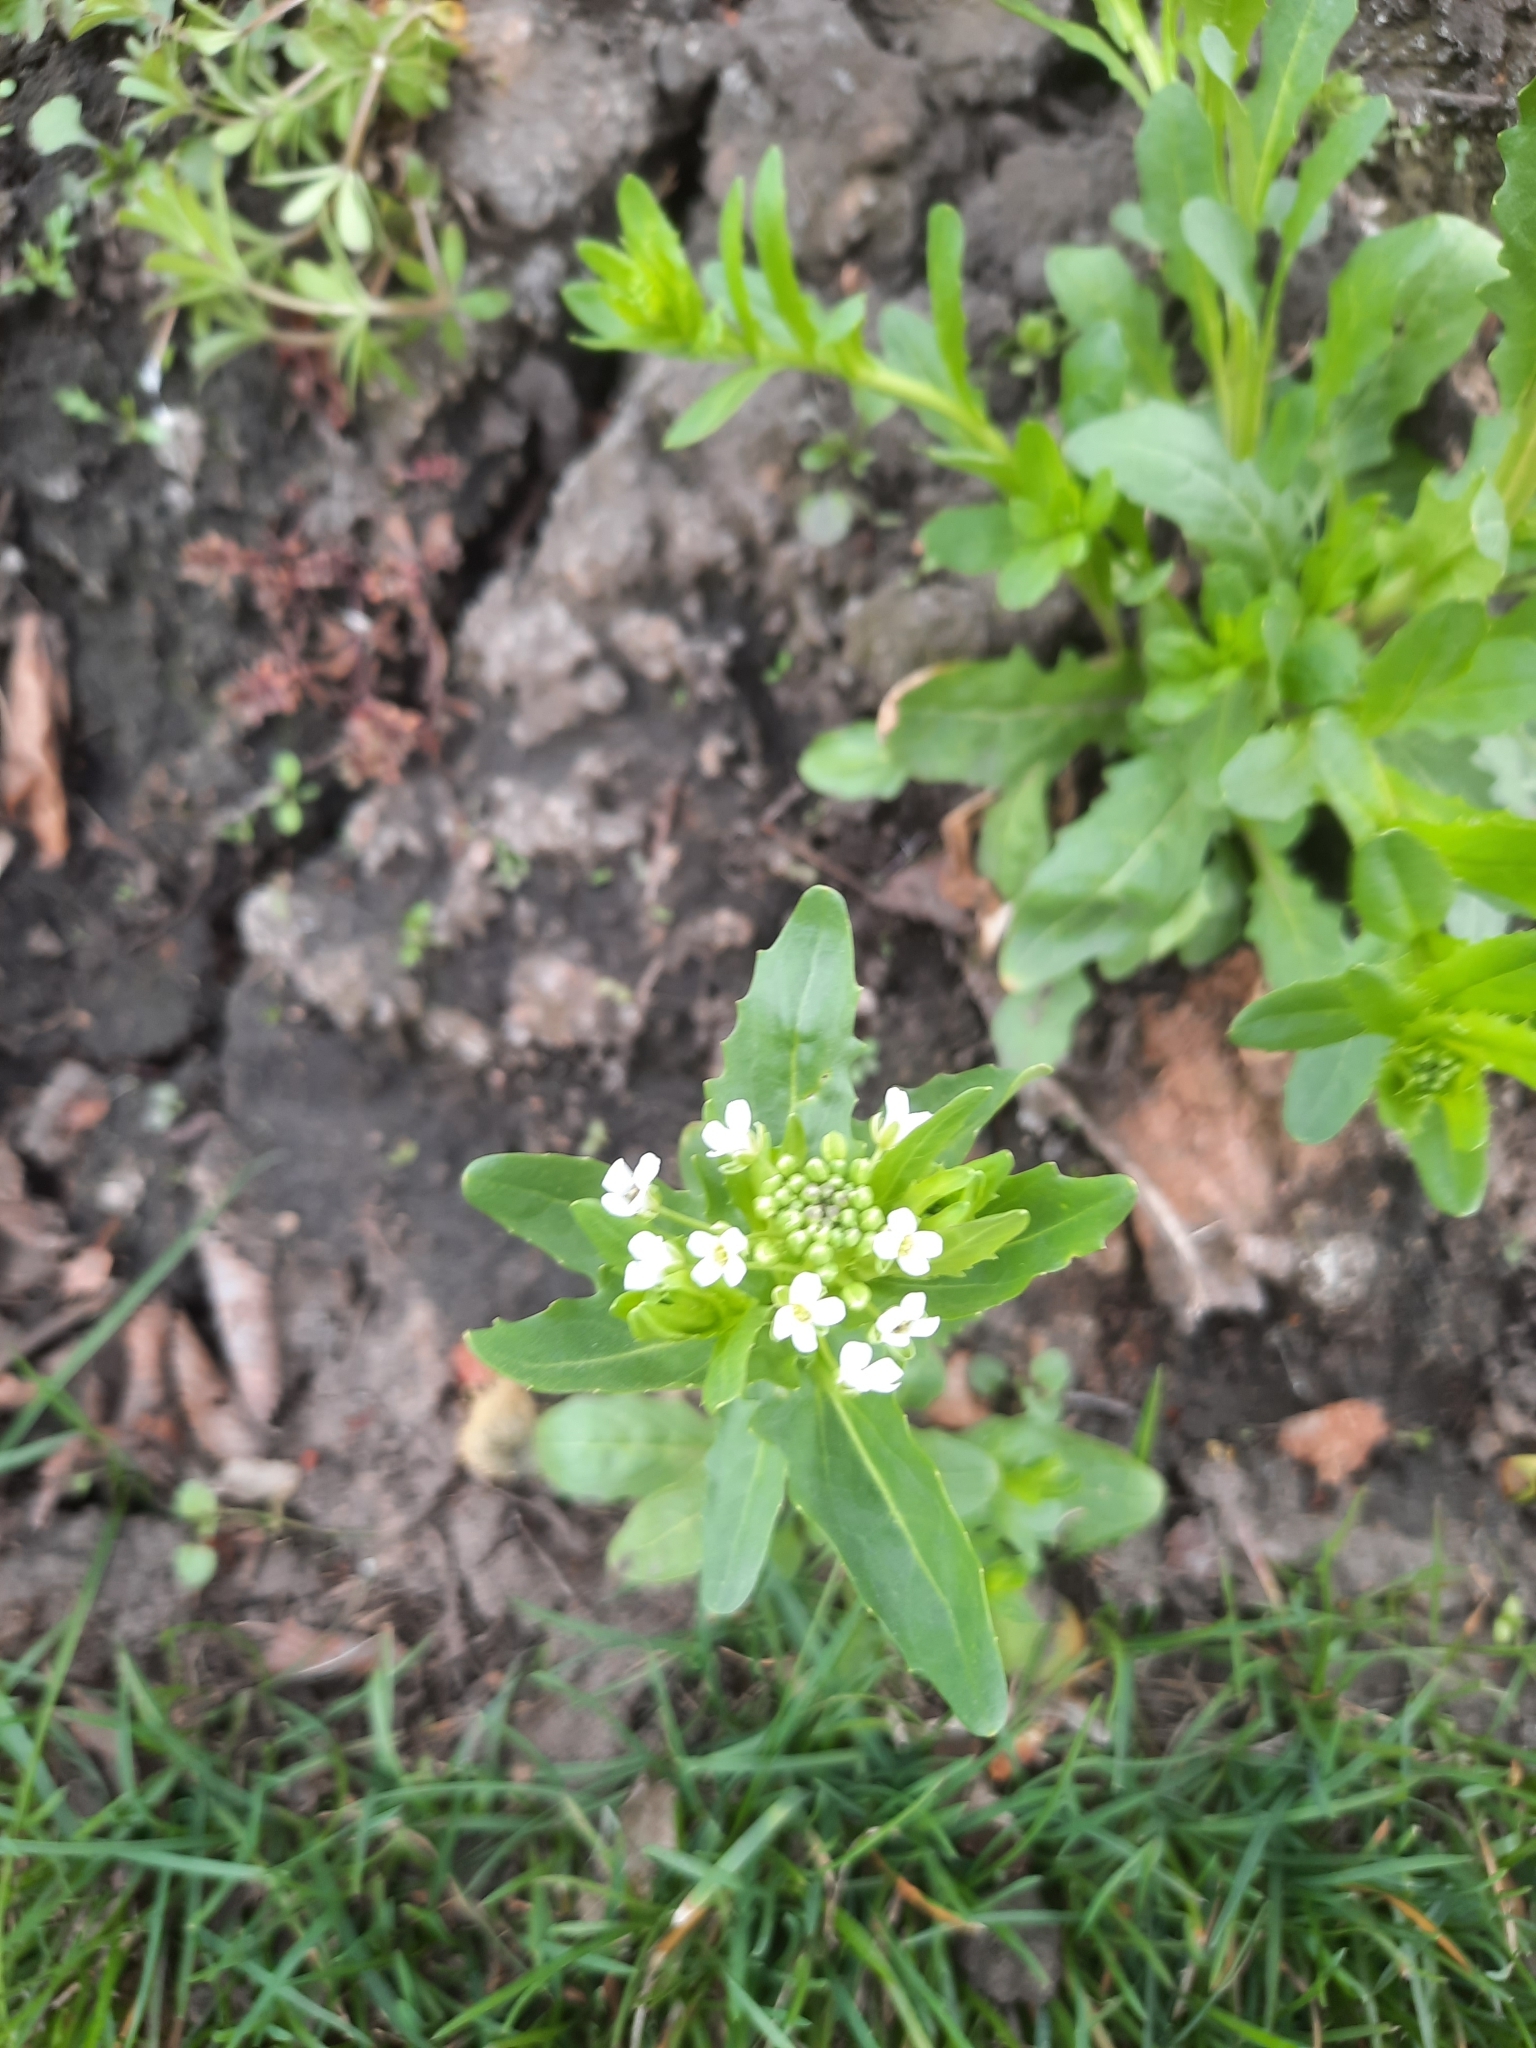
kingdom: Plantae
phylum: Tracheophyta
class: Magnoliopsida
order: Brassicales
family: Brassicaceae
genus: Thlaspi
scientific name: Thlaspi arvense
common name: Field pennycress
